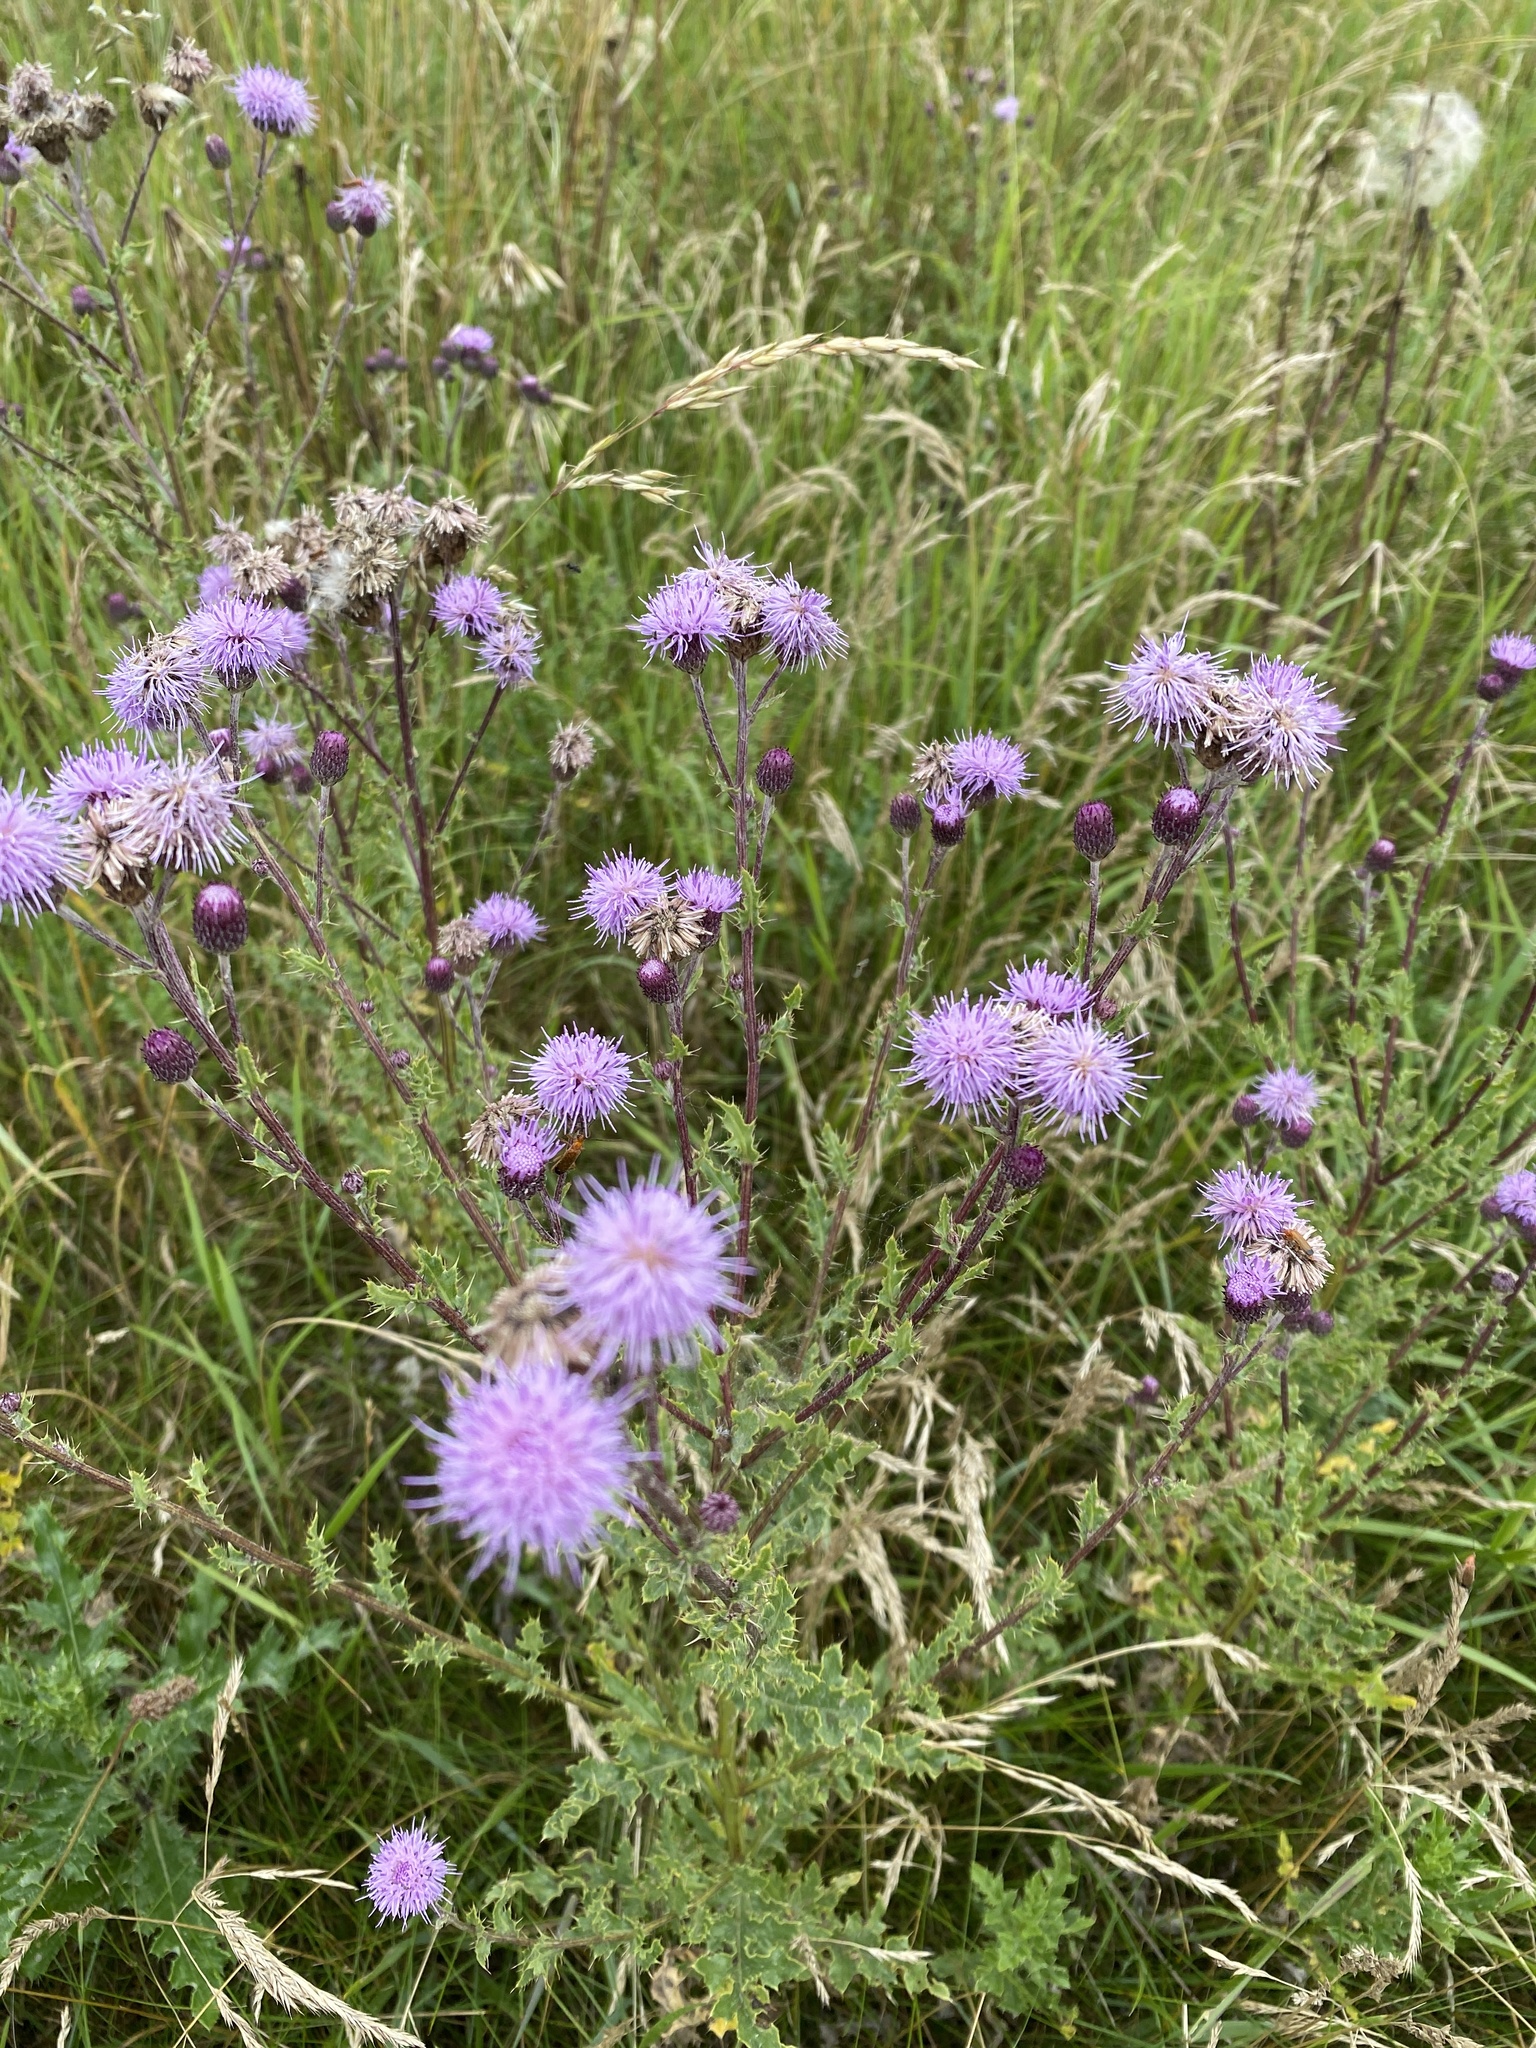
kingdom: Plantae
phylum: Tracheophyta
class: Magnoliopsida
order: Asterales
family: Asteraceae
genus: Cirsium
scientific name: Cirsium arvense
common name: Creeping thistle
